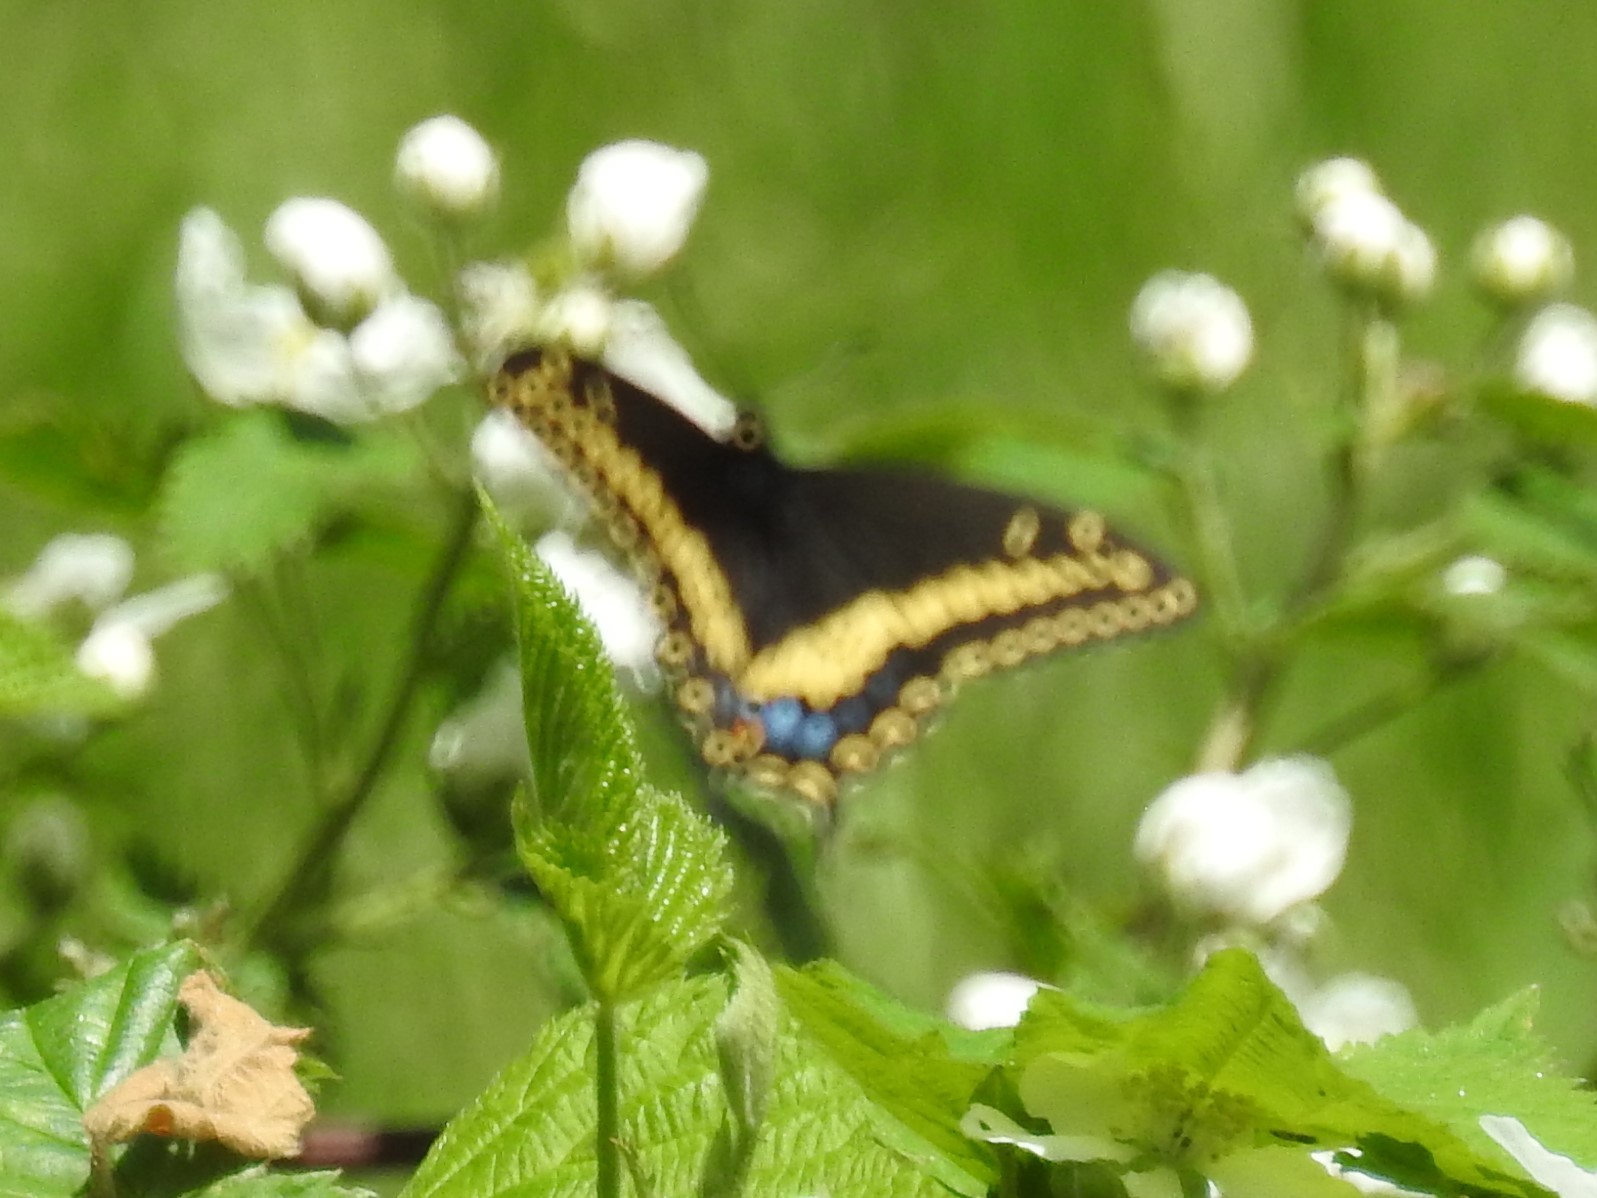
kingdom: Animalia
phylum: Arthropoda
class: Insecta
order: Lepidoptera
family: Papilionidae
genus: Papilio
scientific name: Papilio polyxenes
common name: Black swallowtail
